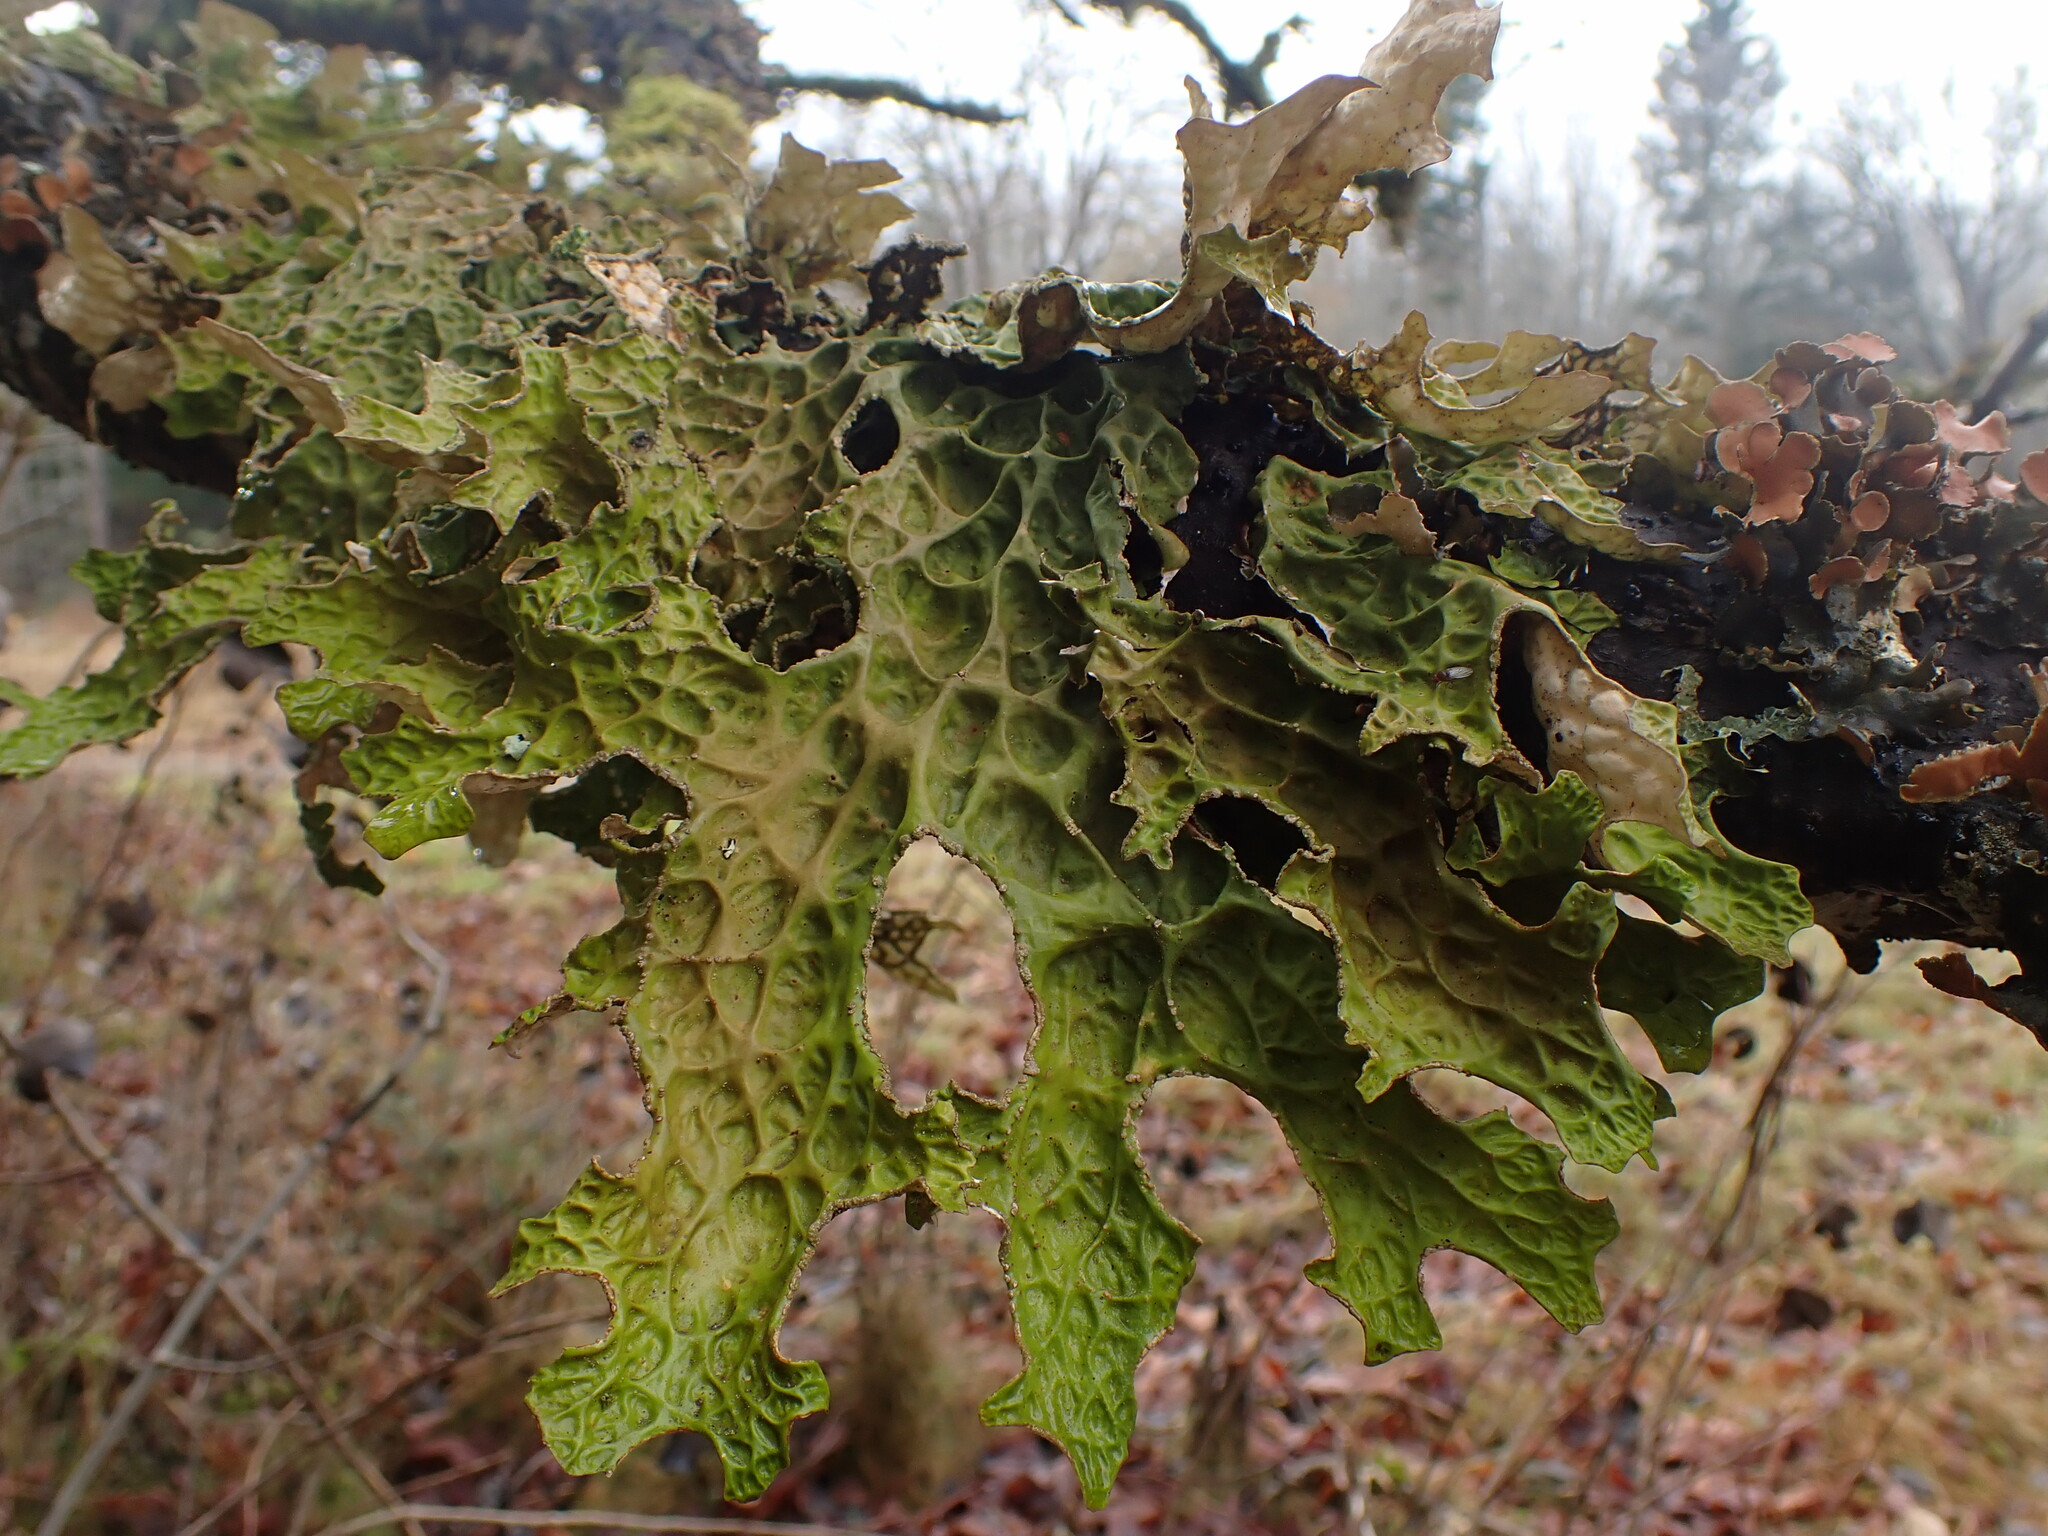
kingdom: Fungi
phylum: Ascomycota
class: Lecanoromycetes
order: Peltigerales
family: Lobariaceae
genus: Lobaria
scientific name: Lobaria pulmonaria
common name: Lungwort
